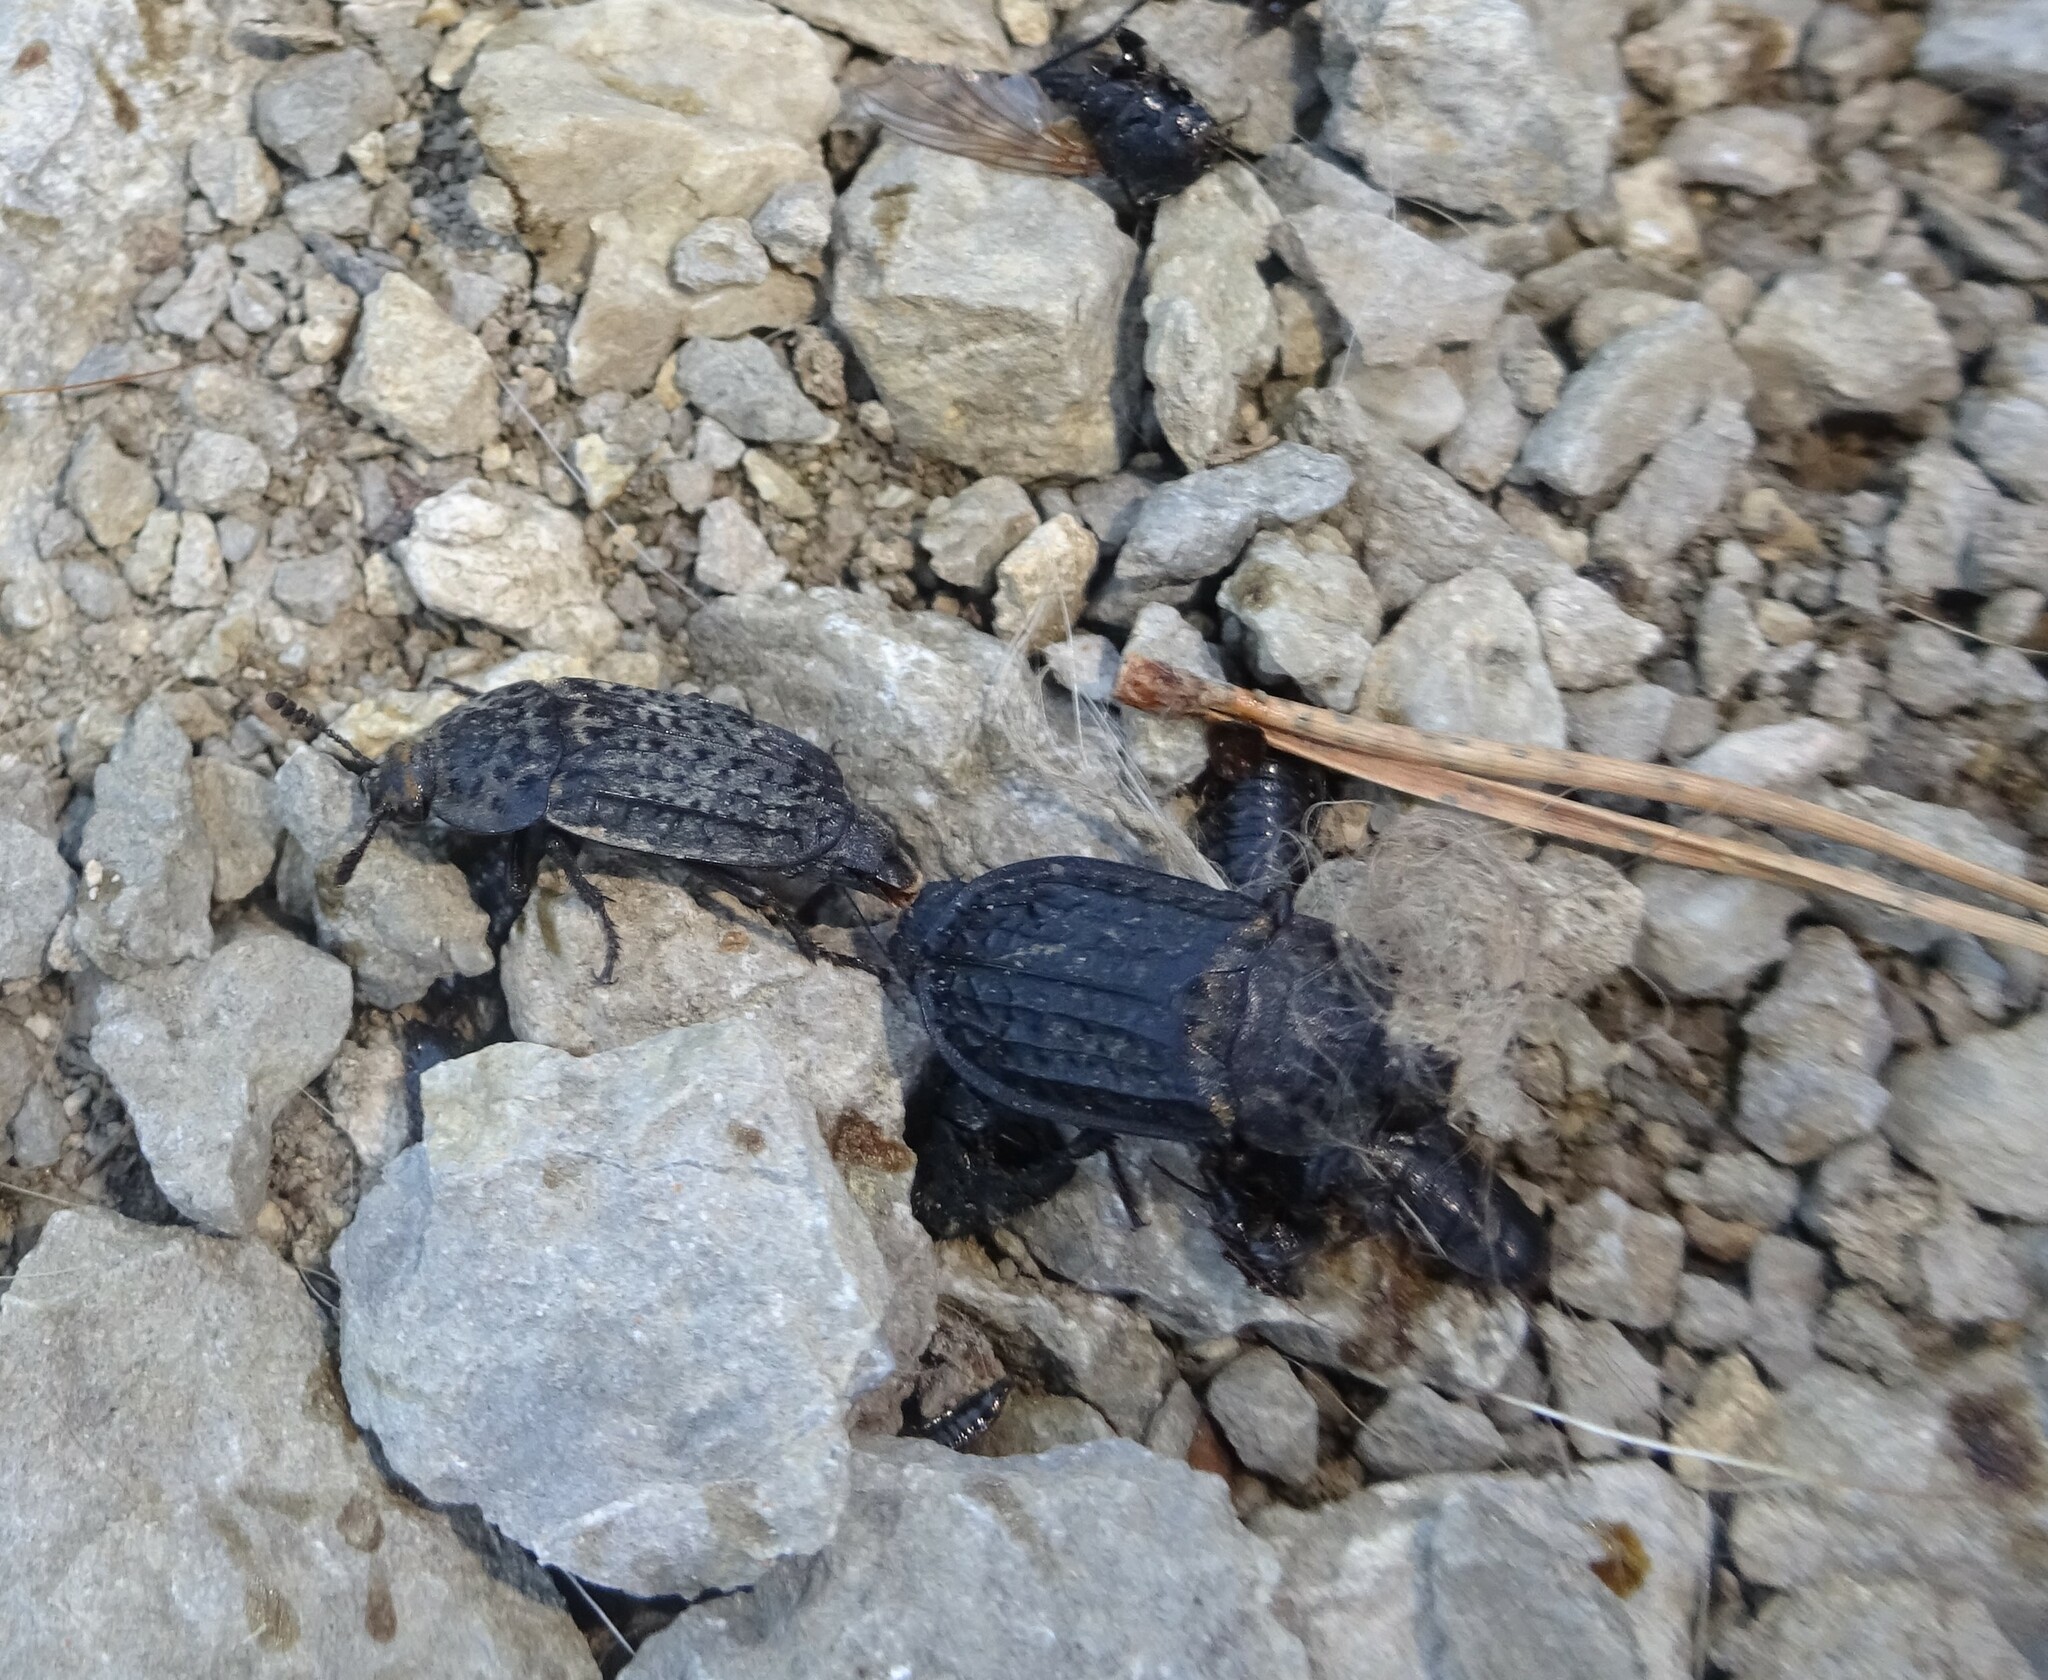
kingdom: Animalia
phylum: Arthropoda
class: Insecta
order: Coleoptera
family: Staphylinidae
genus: Thanatophilus
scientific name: Thanatophilus rugosus
